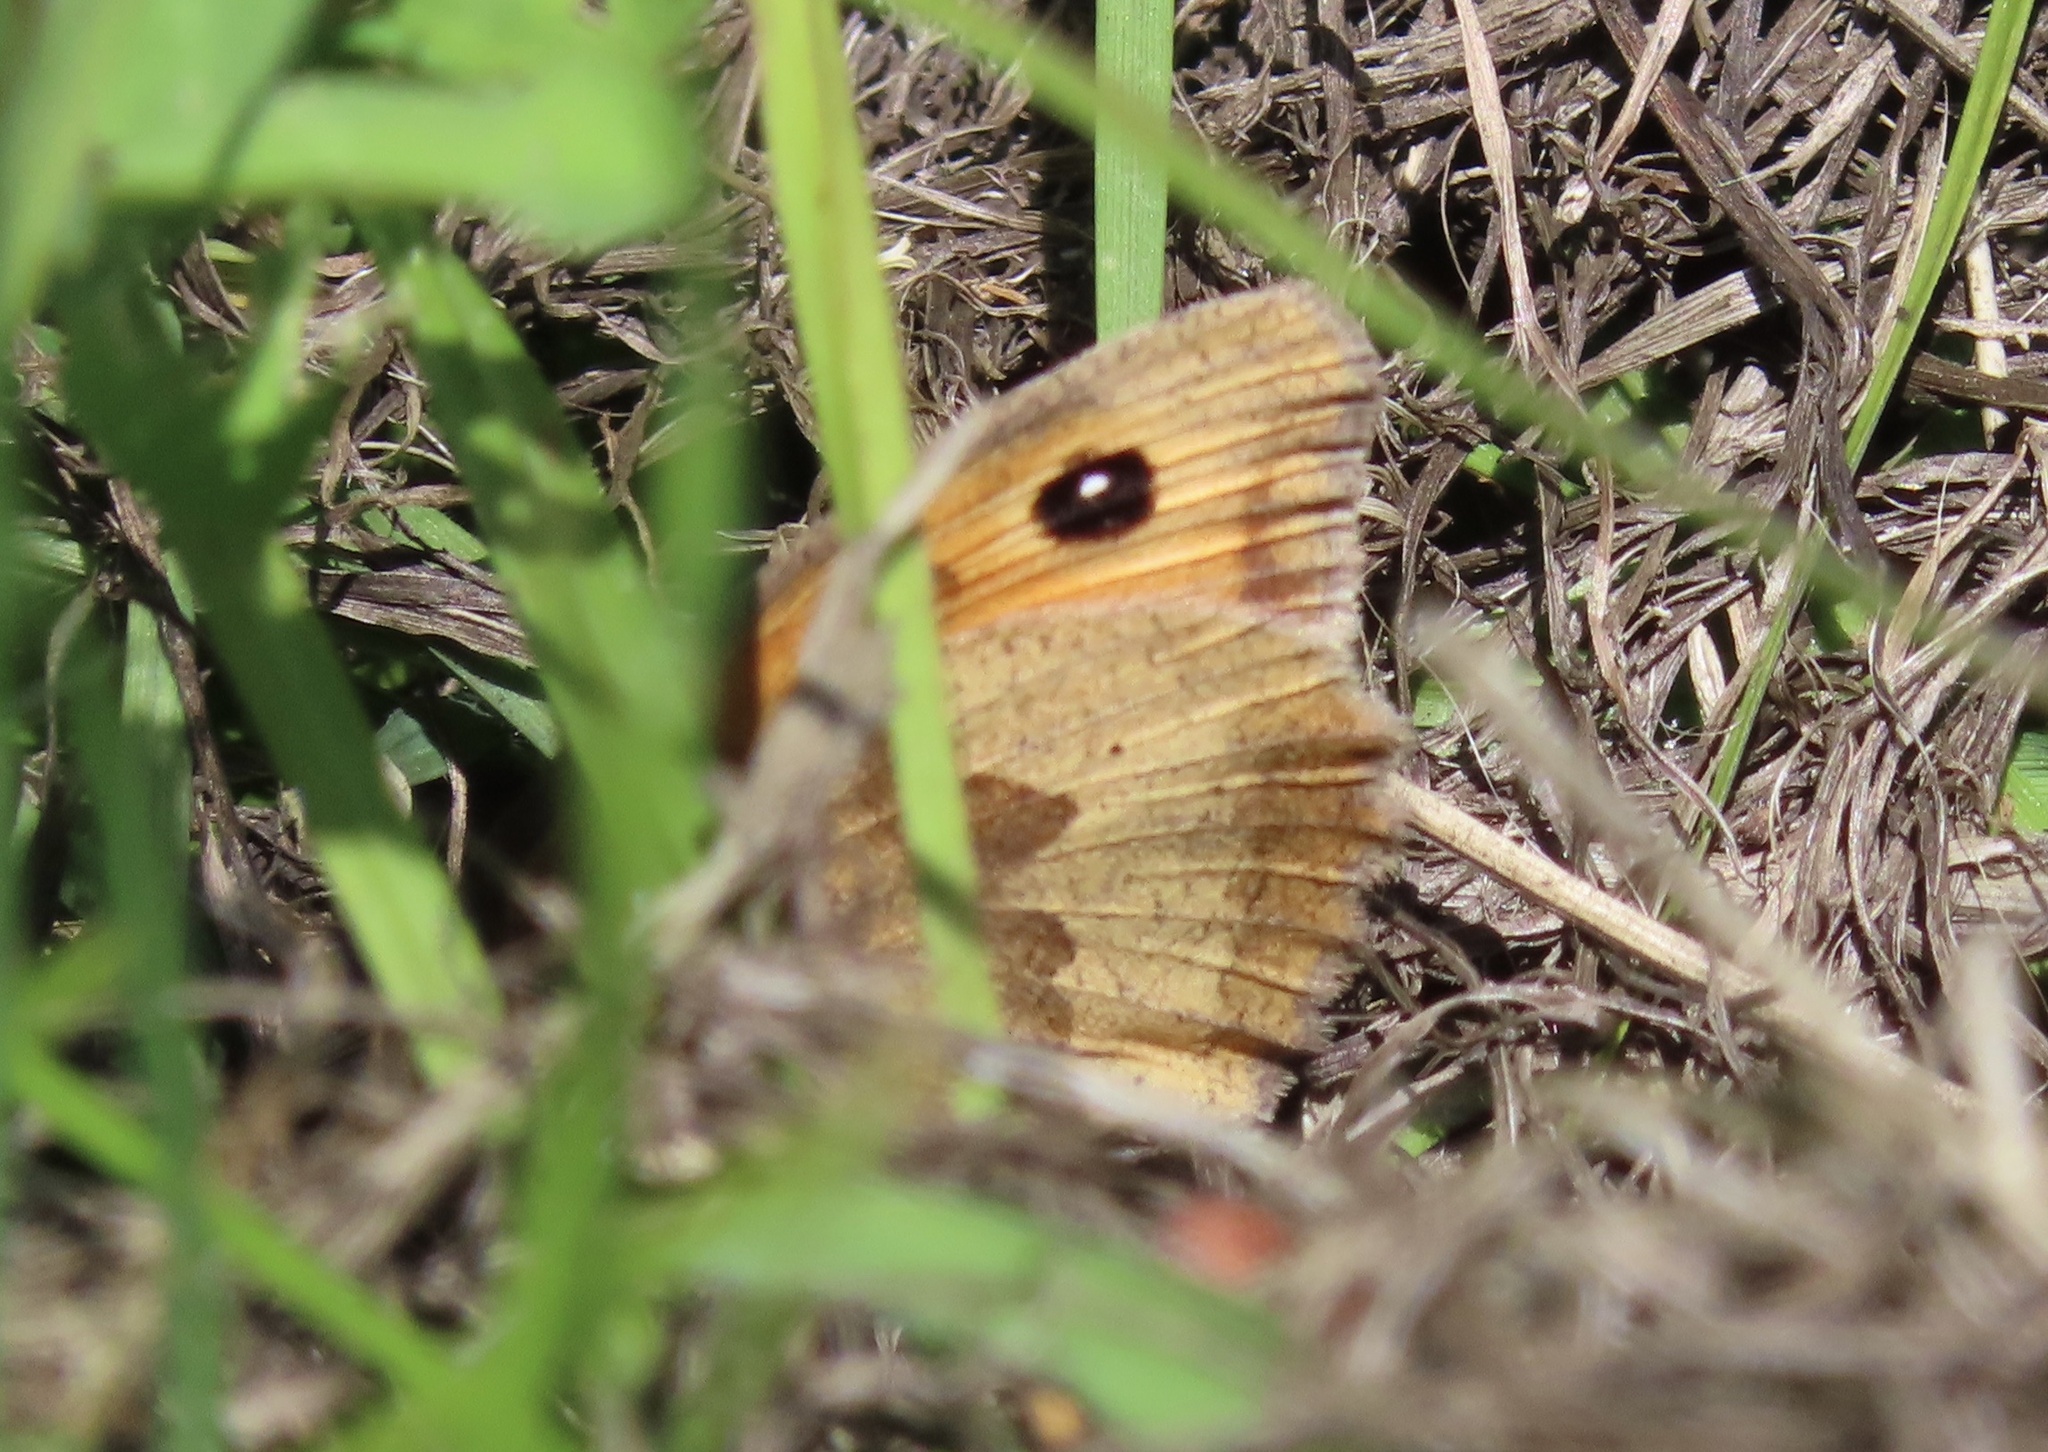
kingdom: Animalia
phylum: Arthropoda
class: Insecta
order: Lepidoptera
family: Nymphalidae
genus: Maniola
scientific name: Maniola jurtina
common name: Meadow brown
